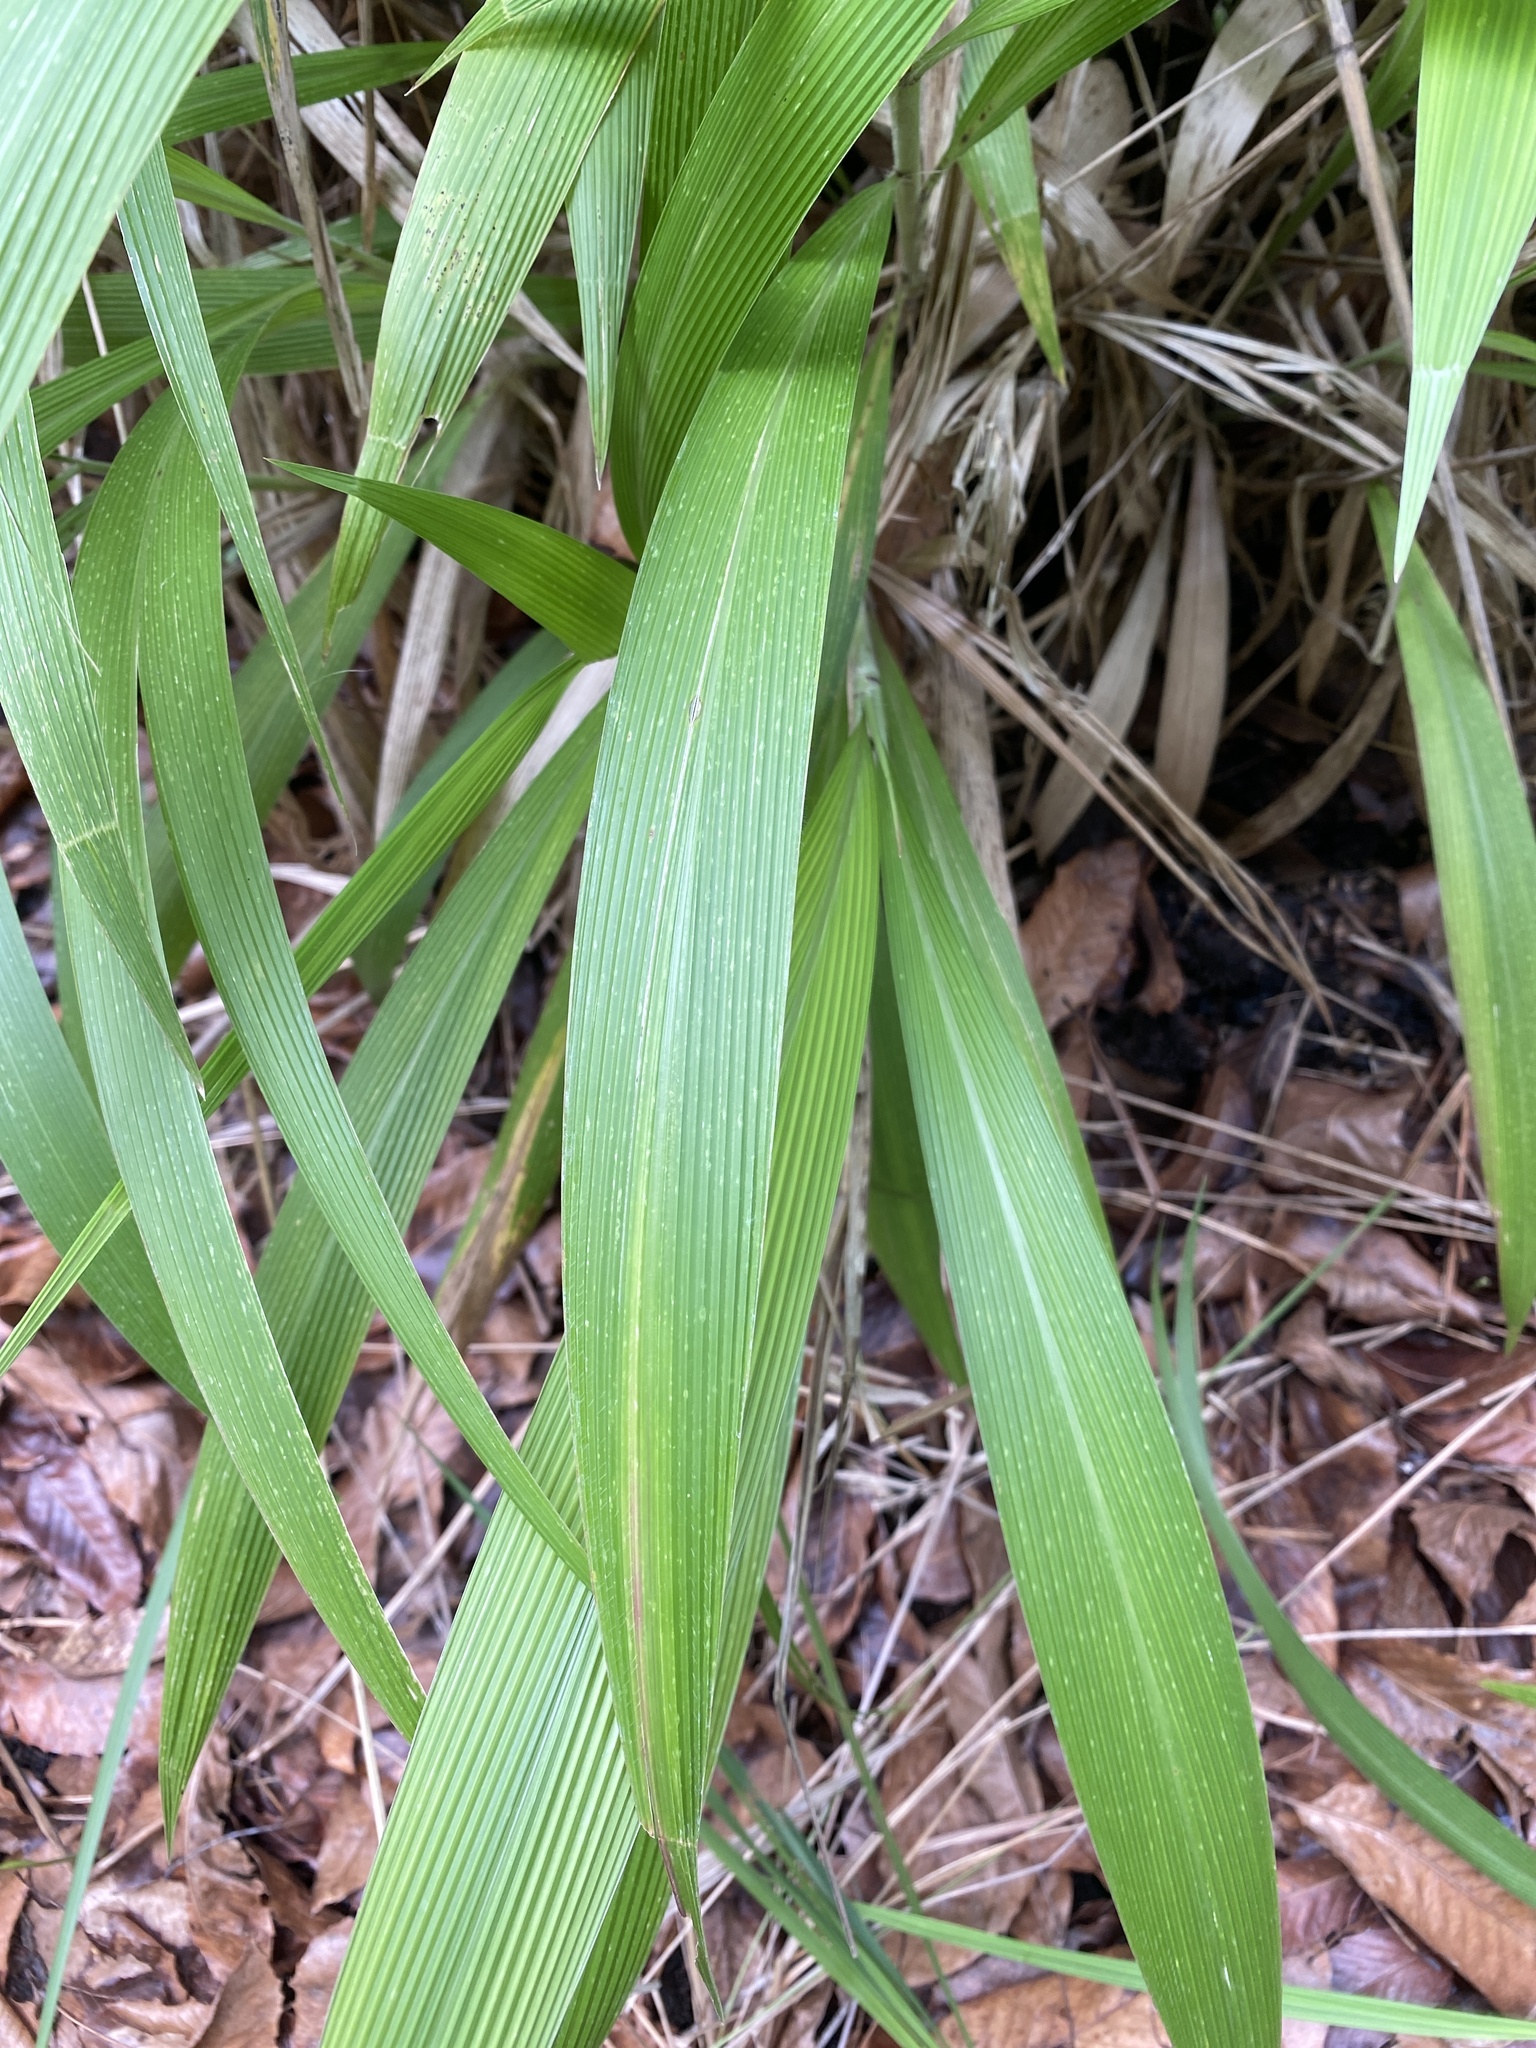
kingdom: Plantae
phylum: Tracheophyta
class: Liliopsida
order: Poales
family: Poaceae
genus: Setaria
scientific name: Setaria megaphylla
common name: Bigleaf bristlegrass
